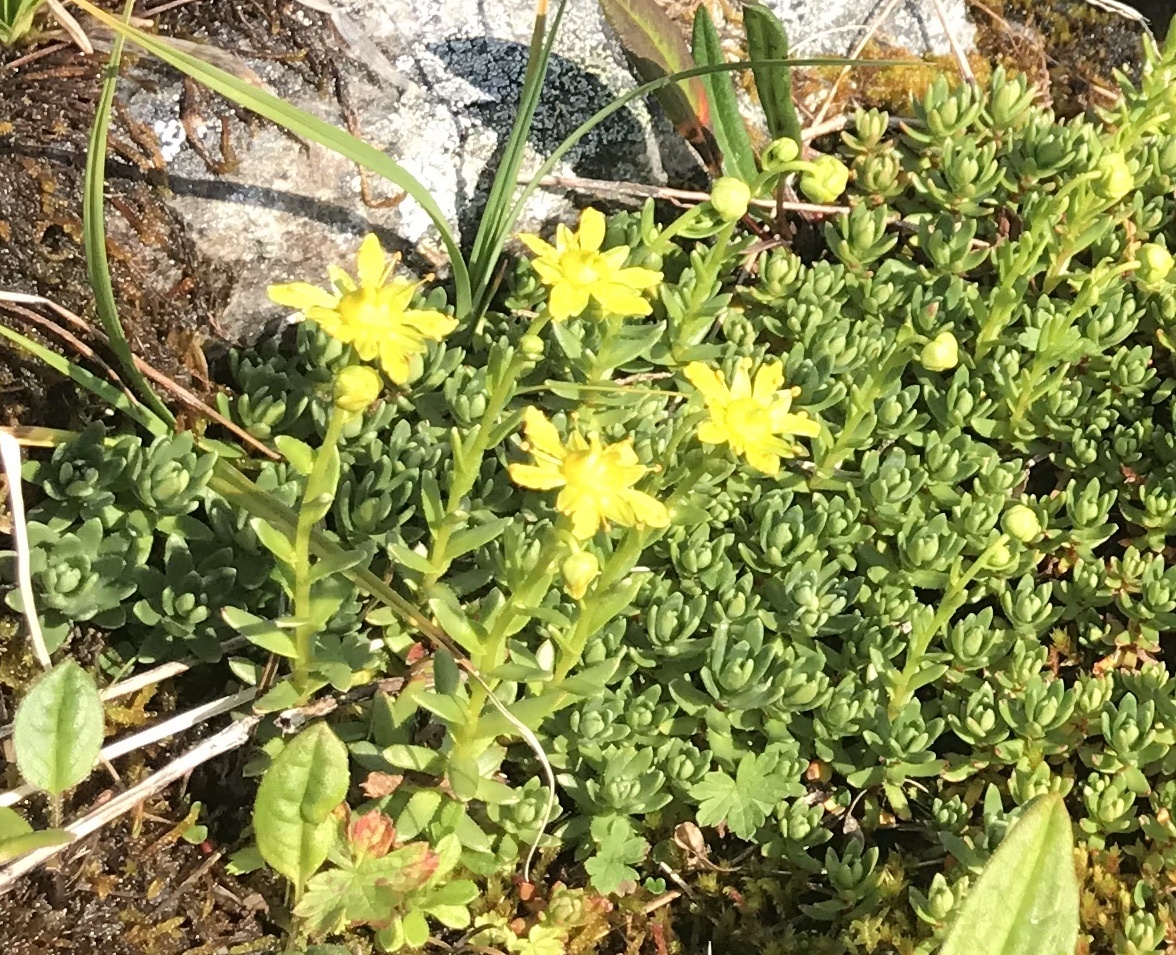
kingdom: Plantae
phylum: Tracheophyta
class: Magnoliopsida
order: Saxifragales
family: Saxifragaceae
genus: Saxifraga
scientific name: Saxifraga aizoides
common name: Yellow mountain saxifrage
